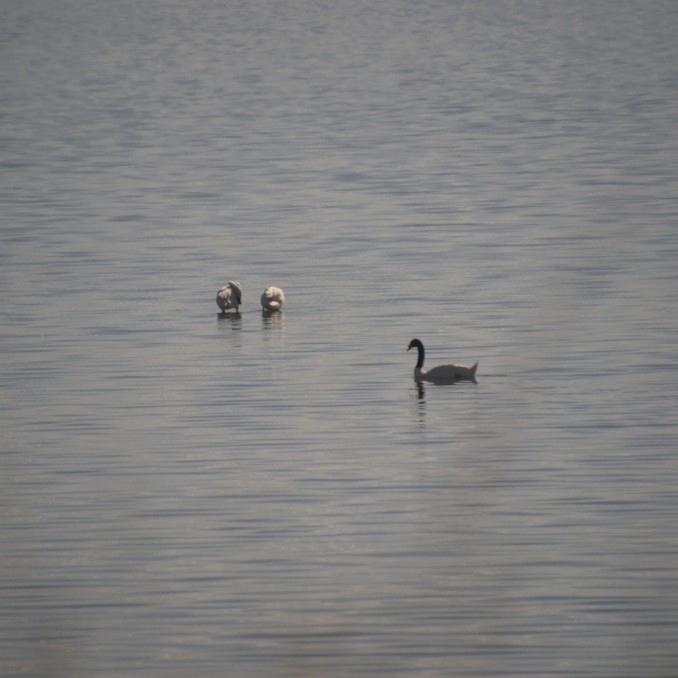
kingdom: Animalia
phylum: Chordata
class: Aves
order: Anseriformes
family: Anatidae
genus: Cygnus
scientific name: Cygnus melancoryphus
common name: Black-necked swan
